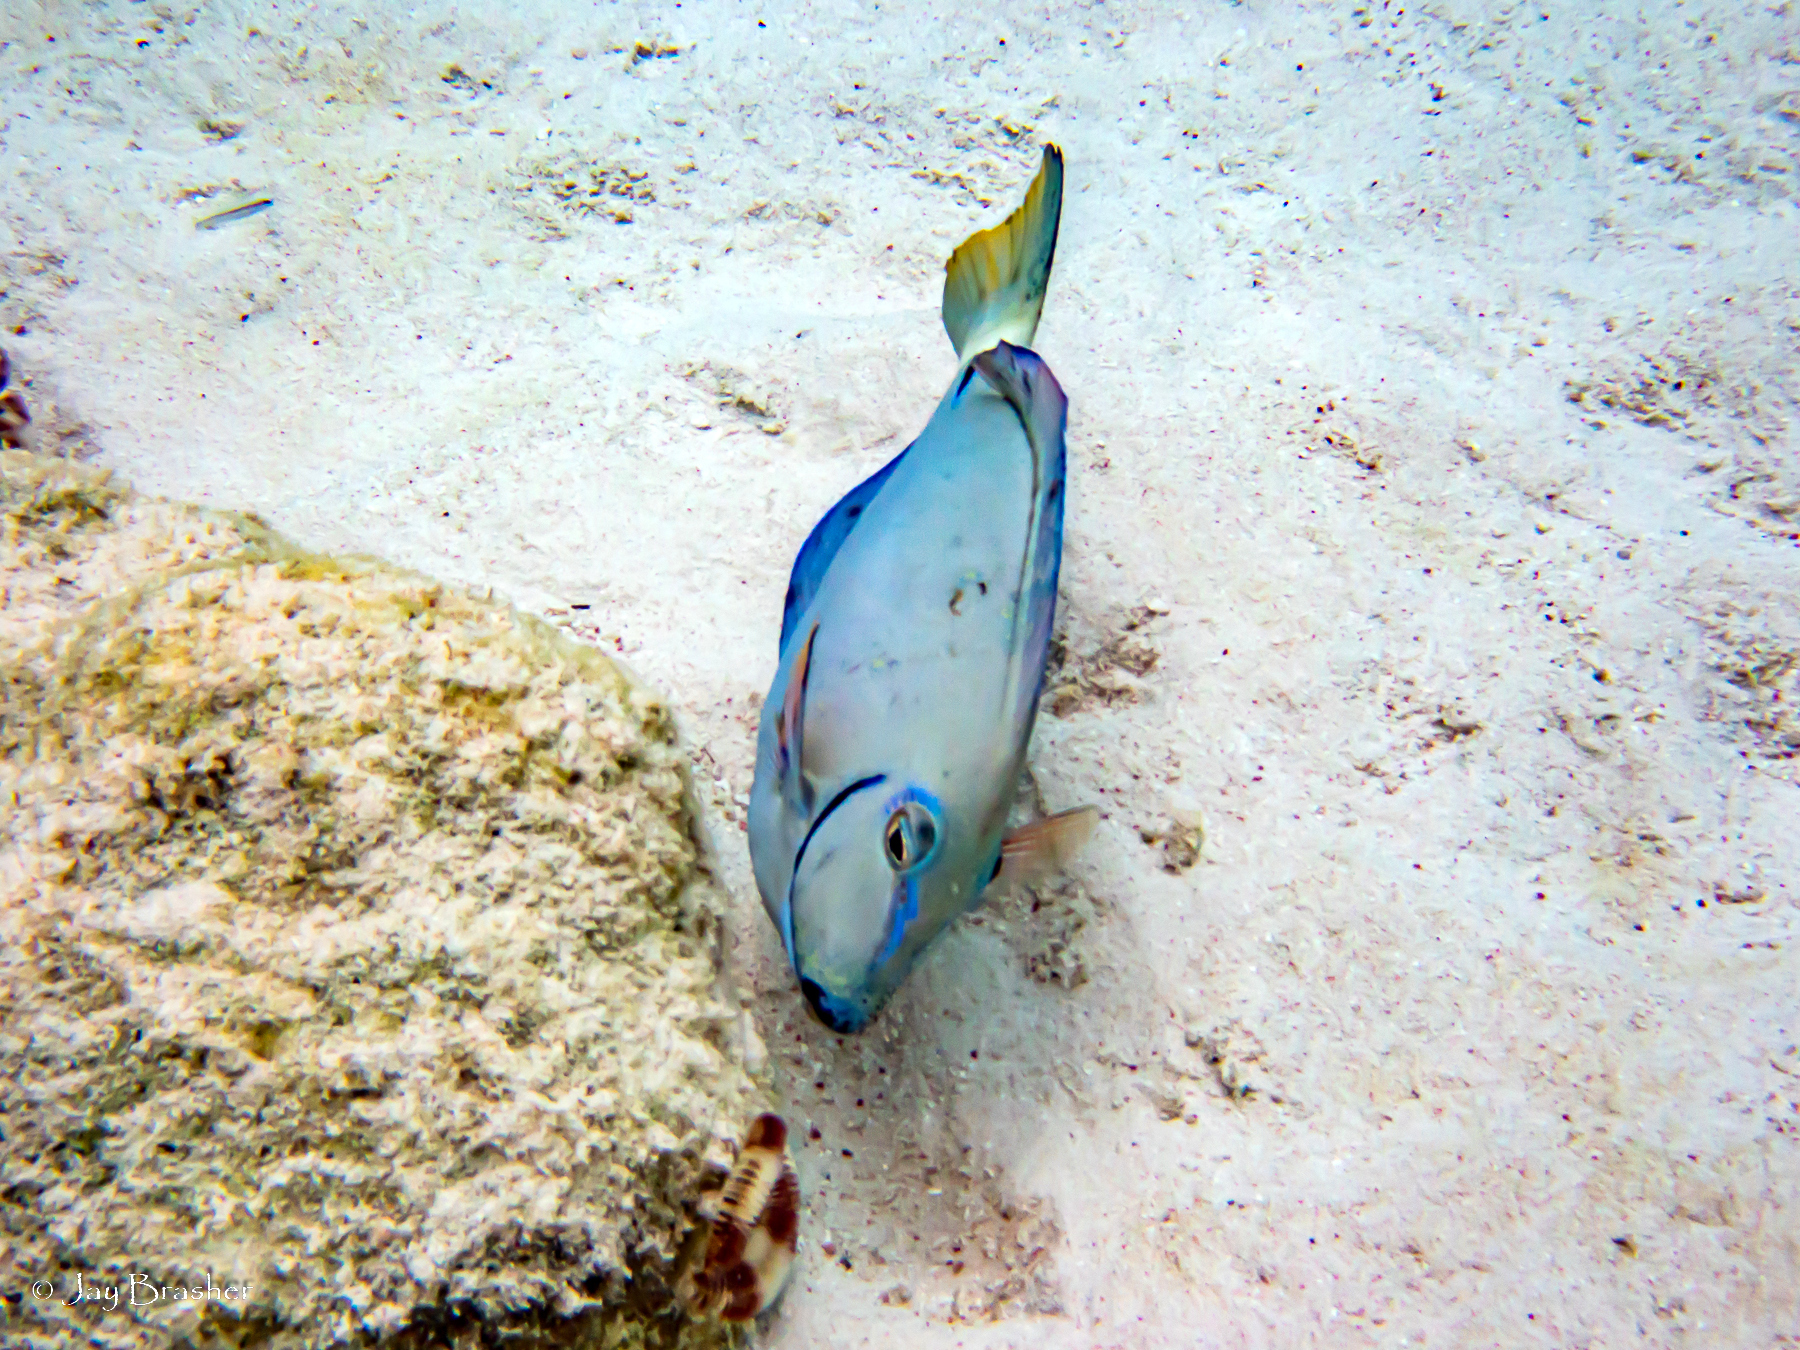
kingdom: Animalia
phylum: Chordata
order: Perciformes
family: Acanthuridae
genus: Acanthurus
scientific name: Acanthurus bahianus
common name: Ocean surgeon
